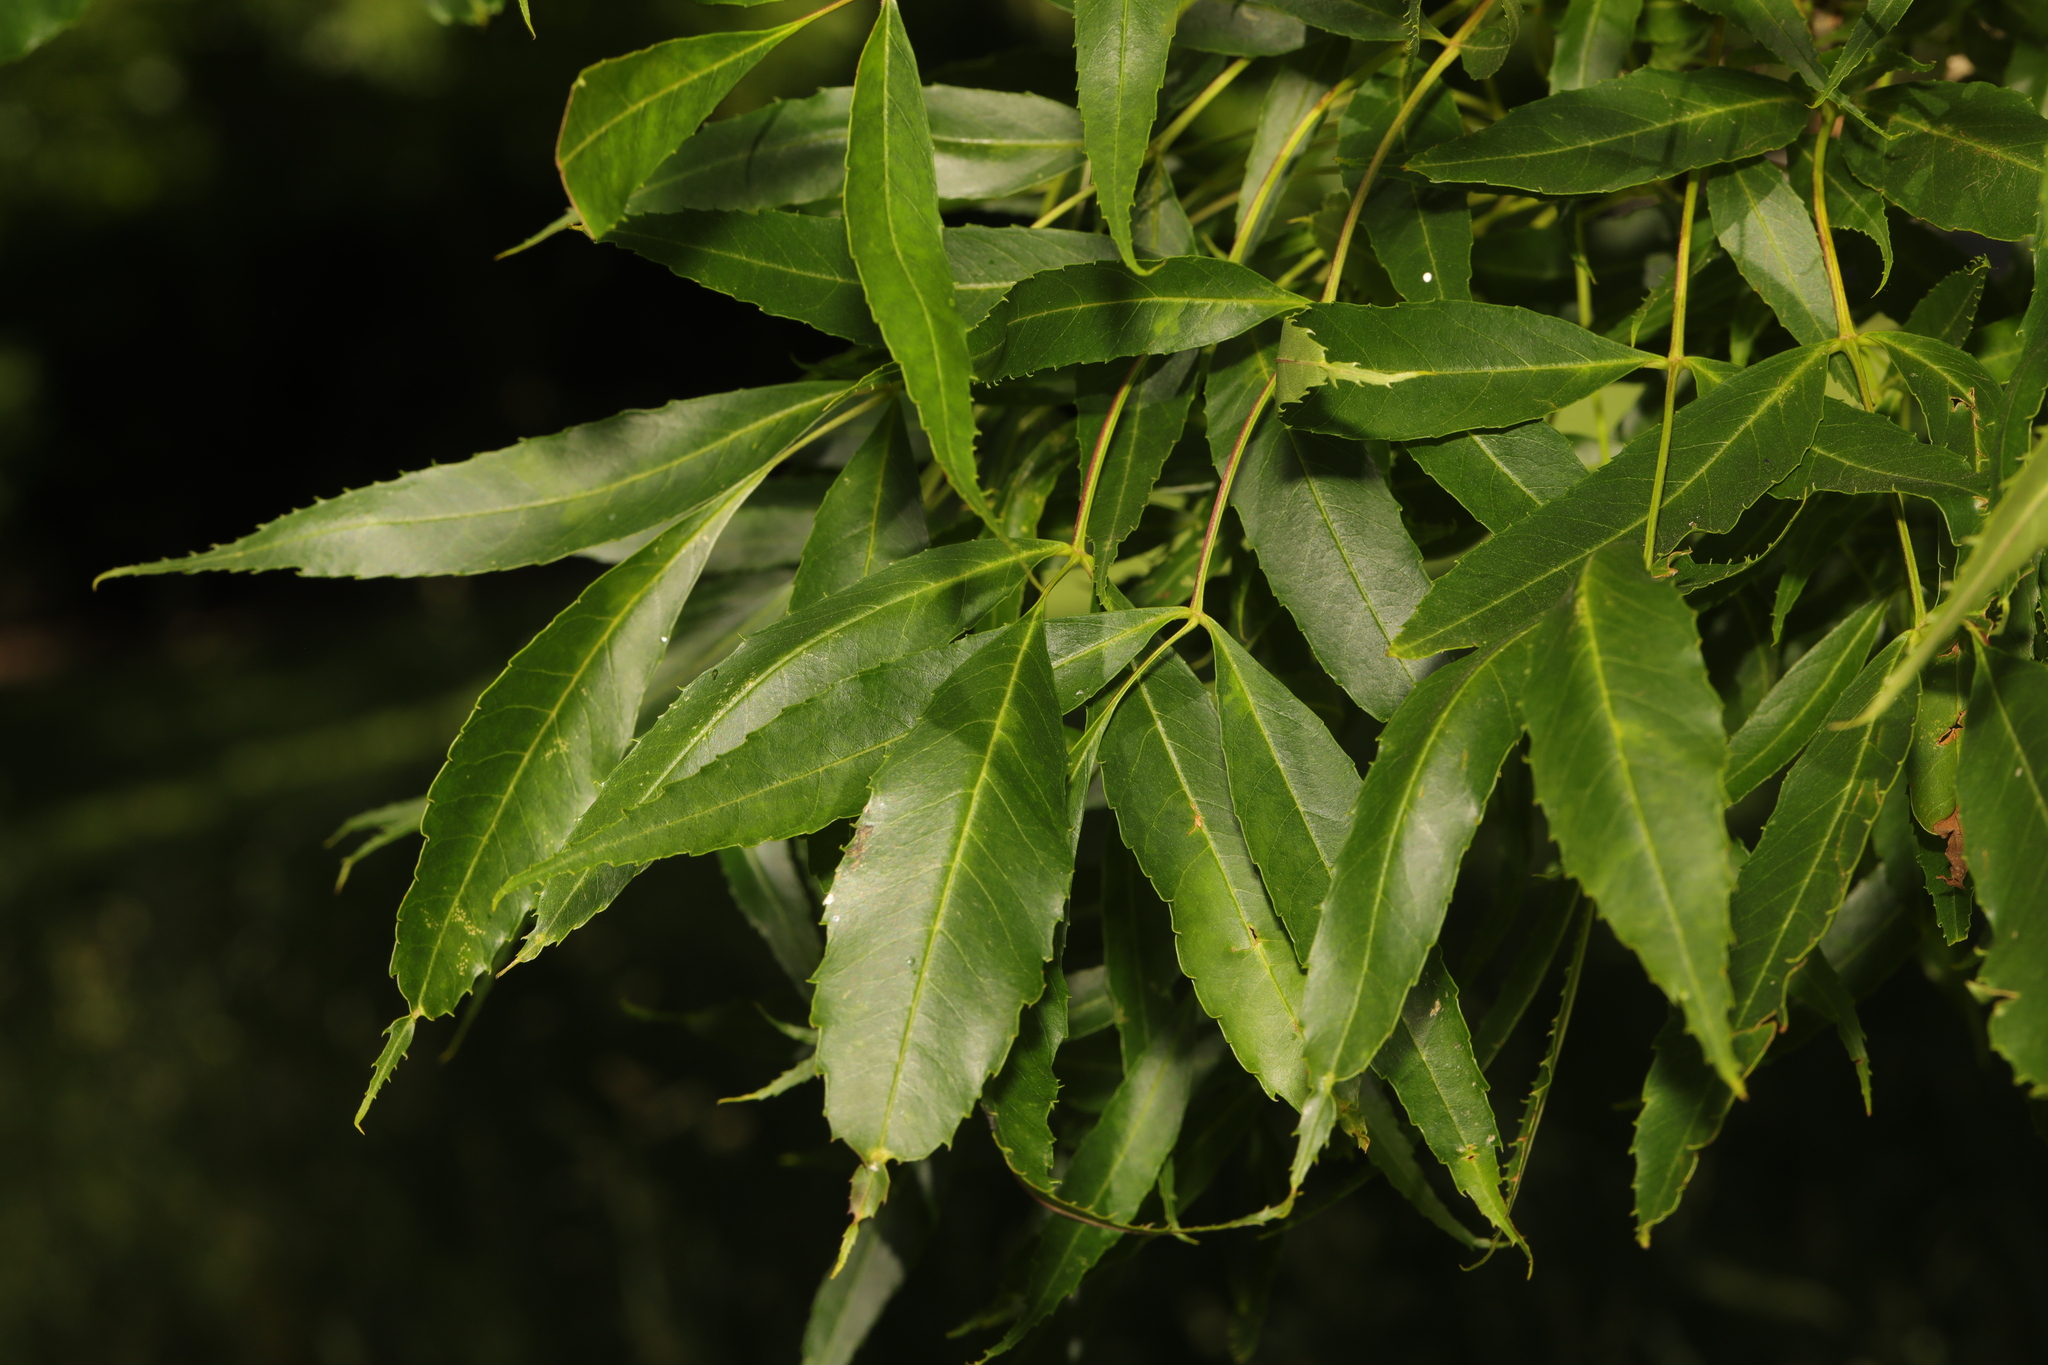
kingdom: Plantae
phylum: Tracheophyta
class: Magnoliopsida
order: Lamiales
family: Oleaceae
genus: Fraxinus
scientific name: Fraxinus excelsior
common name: European ash
